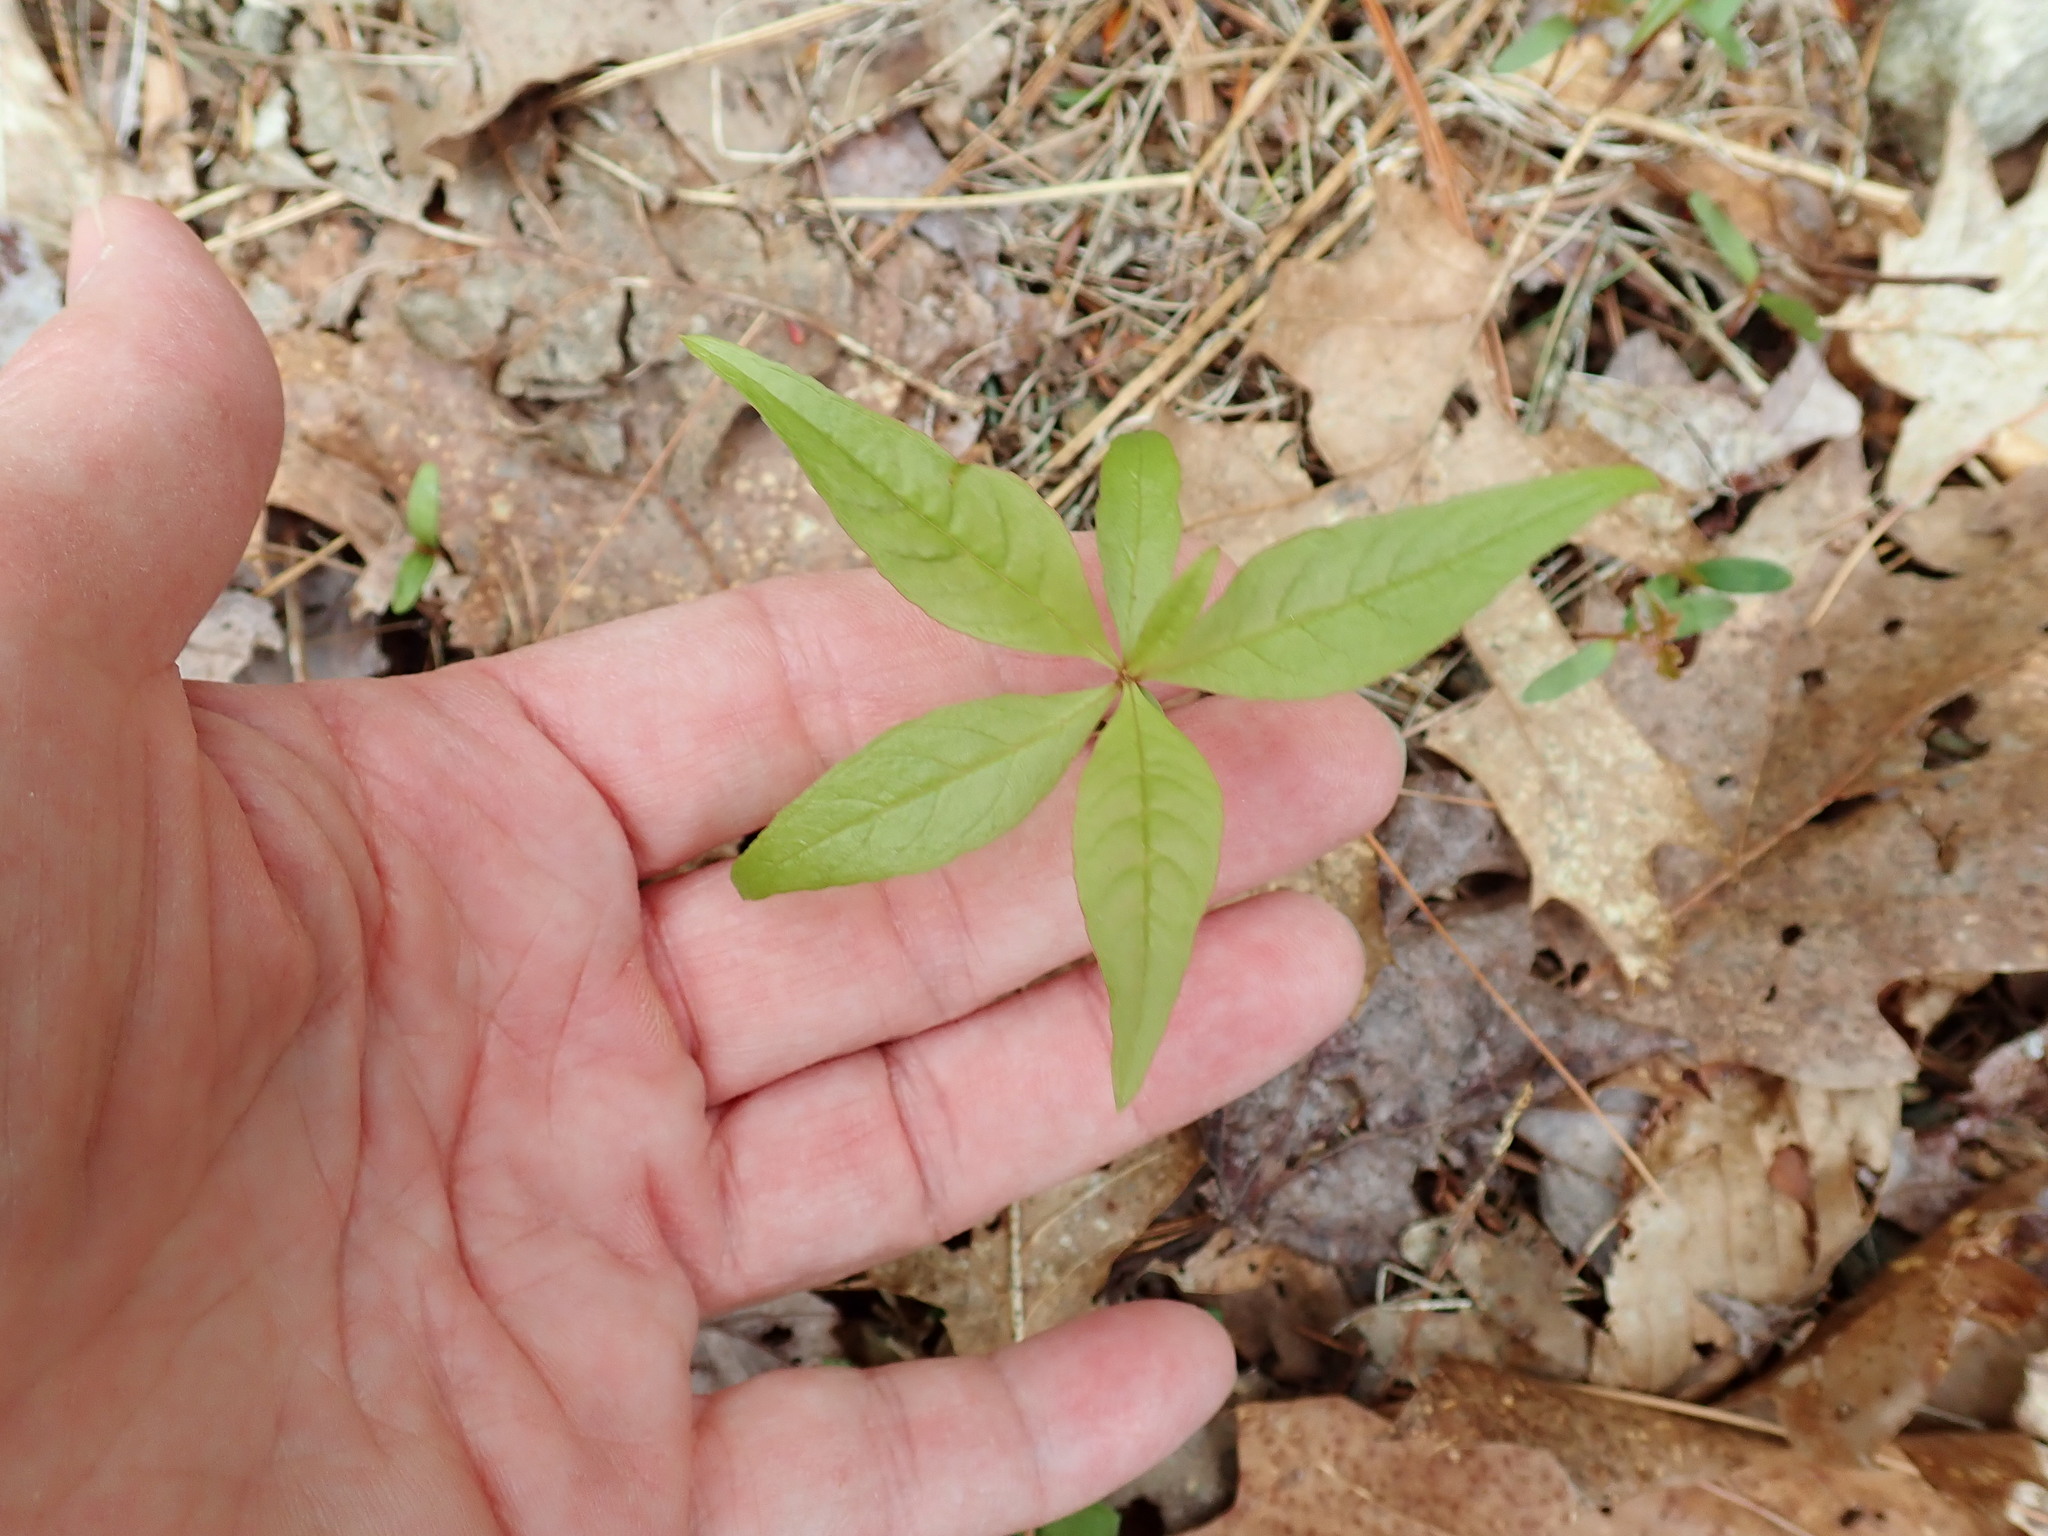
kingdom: Plantae
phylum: Tracheophyta
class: Magnoliopsida
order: Ericales
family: Primulaceae
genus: Lysimachia
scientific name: Lysimachia borealis
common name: American starflower
